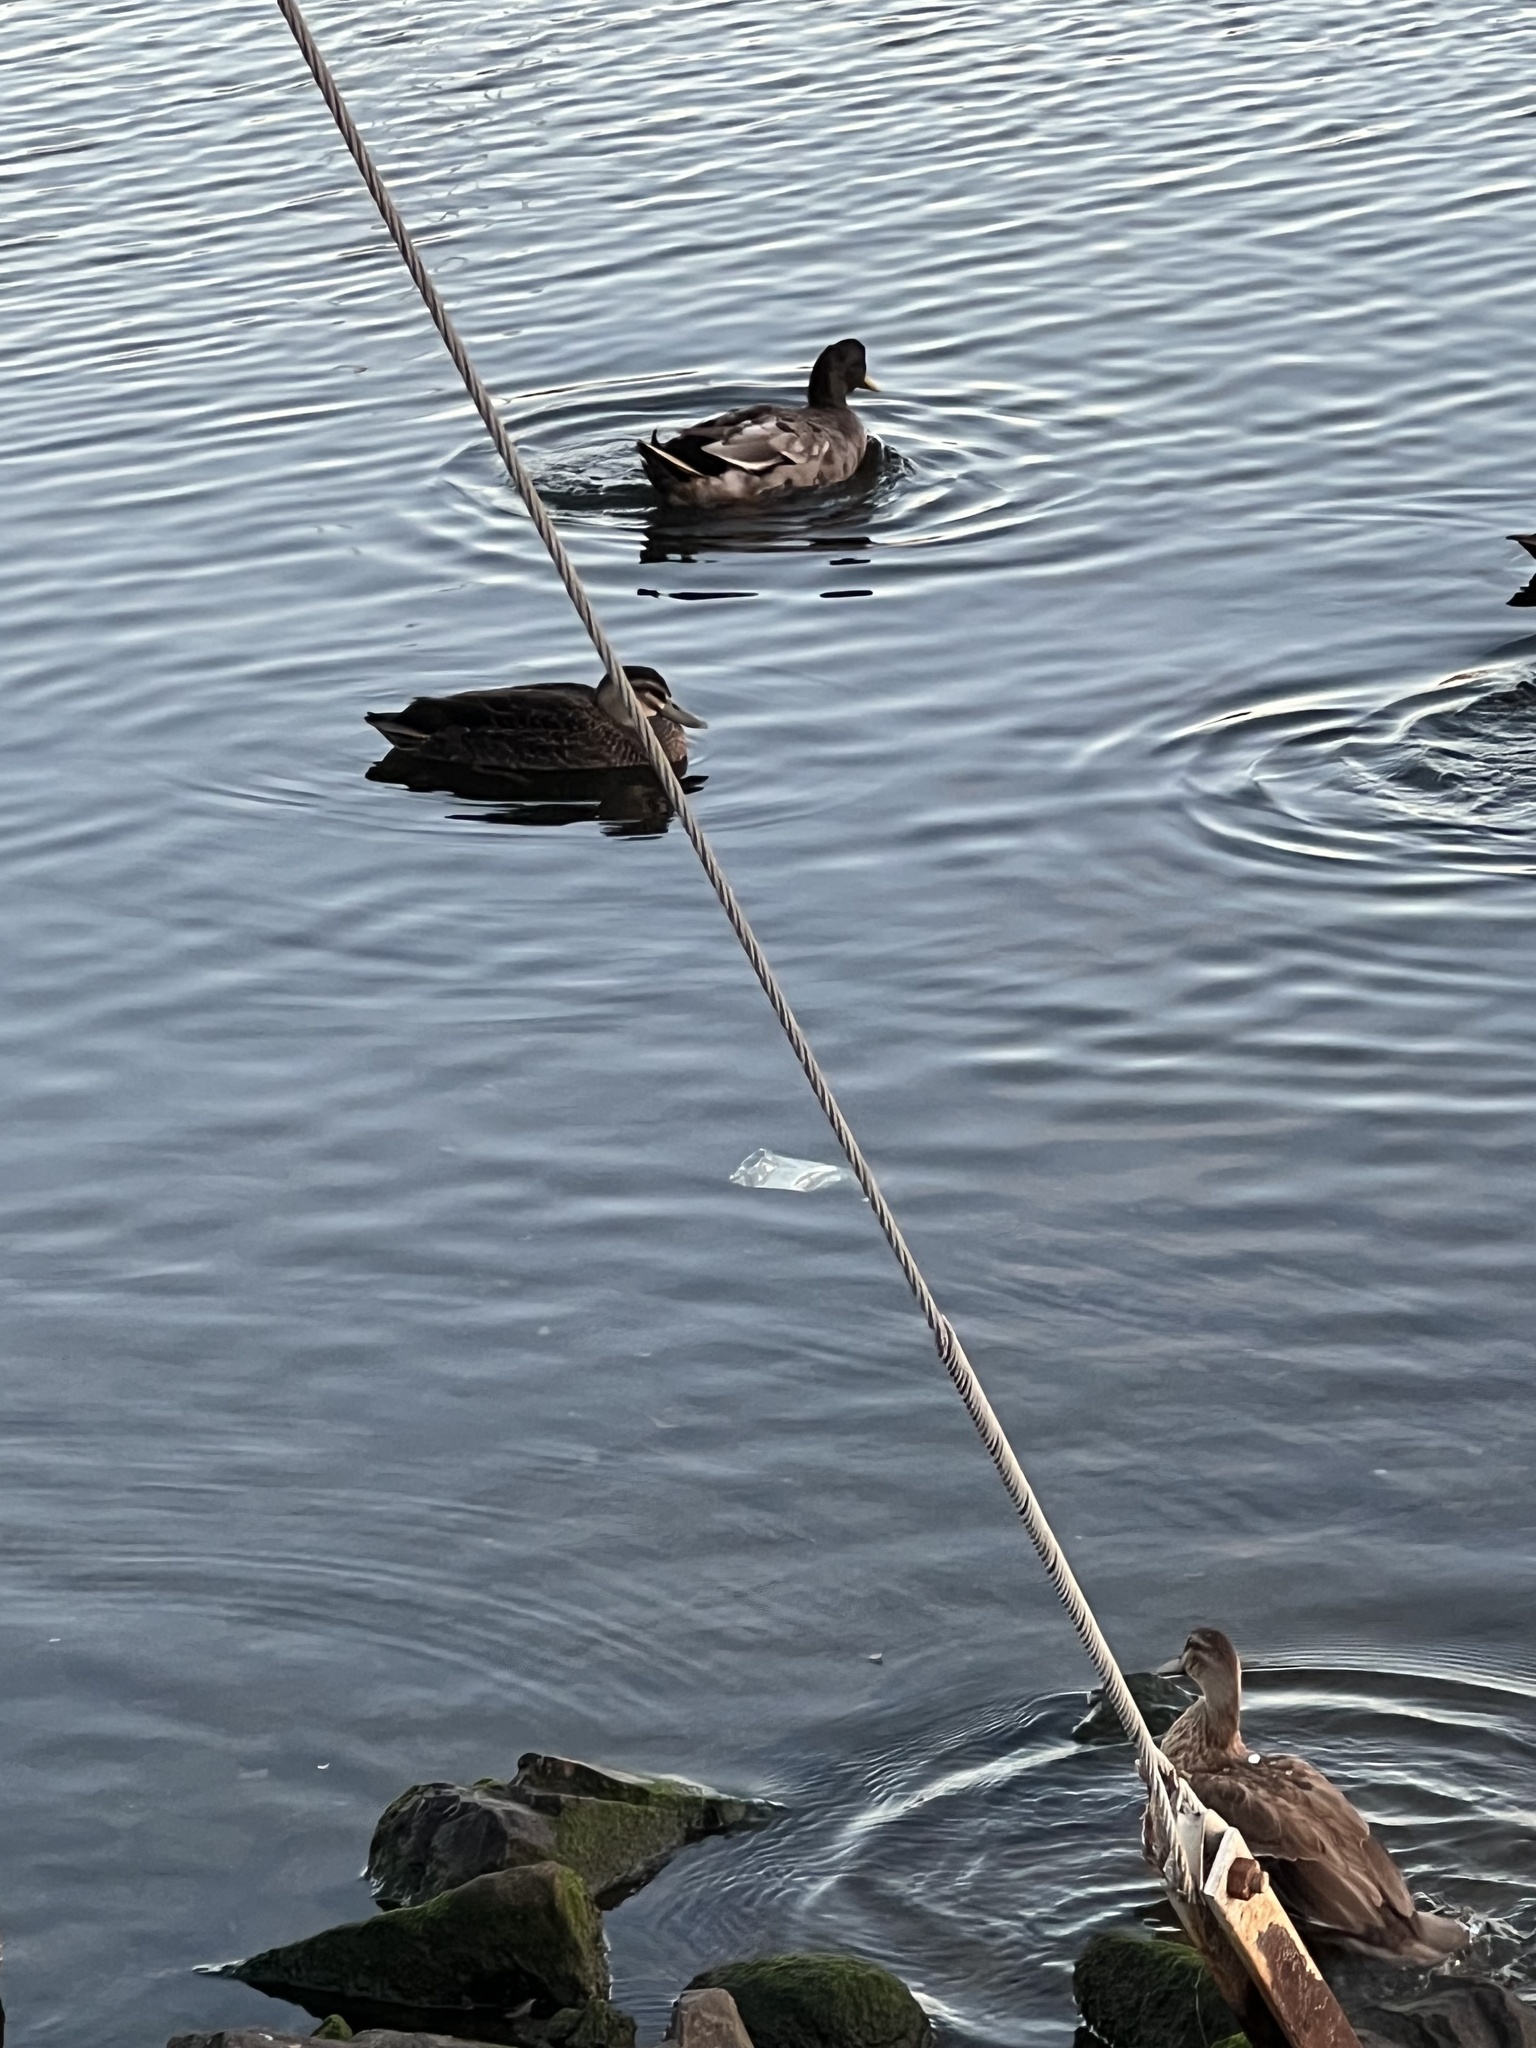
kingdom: Animalia
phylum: Chordata
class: Aves
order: Anseriformes
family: Anatidae
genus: Anas
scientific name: Anas
